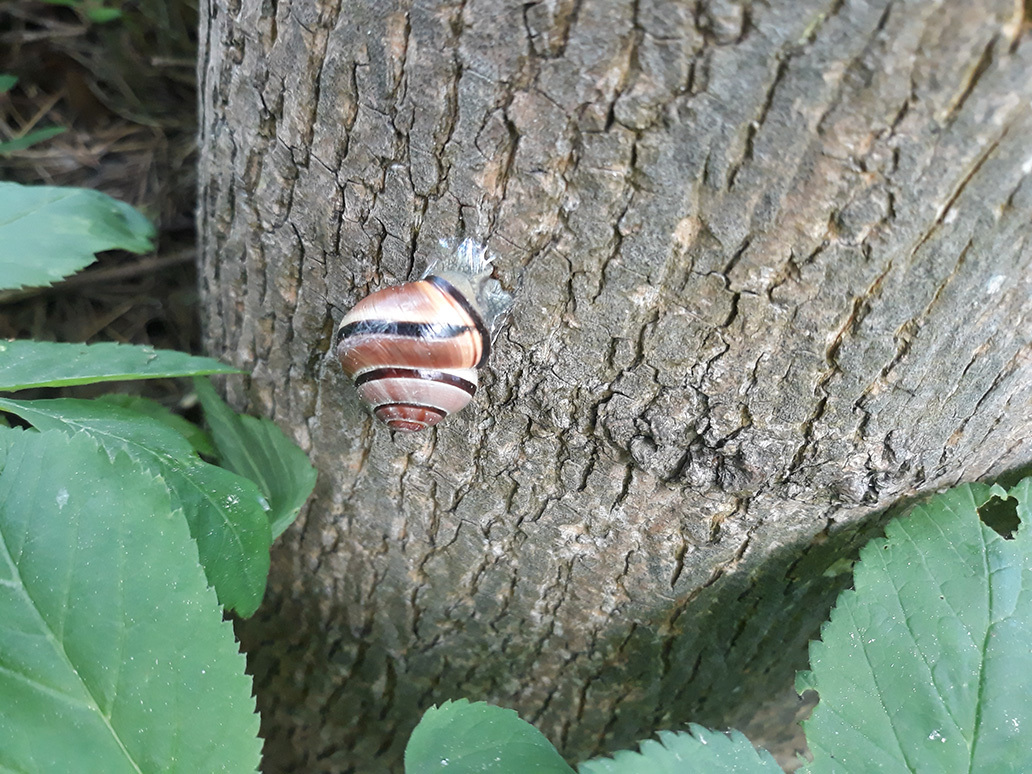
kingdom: Animalia
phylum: Mollusca
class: Gastropoda
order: Stylommatophora
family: Helicidae
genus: Cepaea
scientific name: Cepaea nemoralis
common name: Grovesnail
